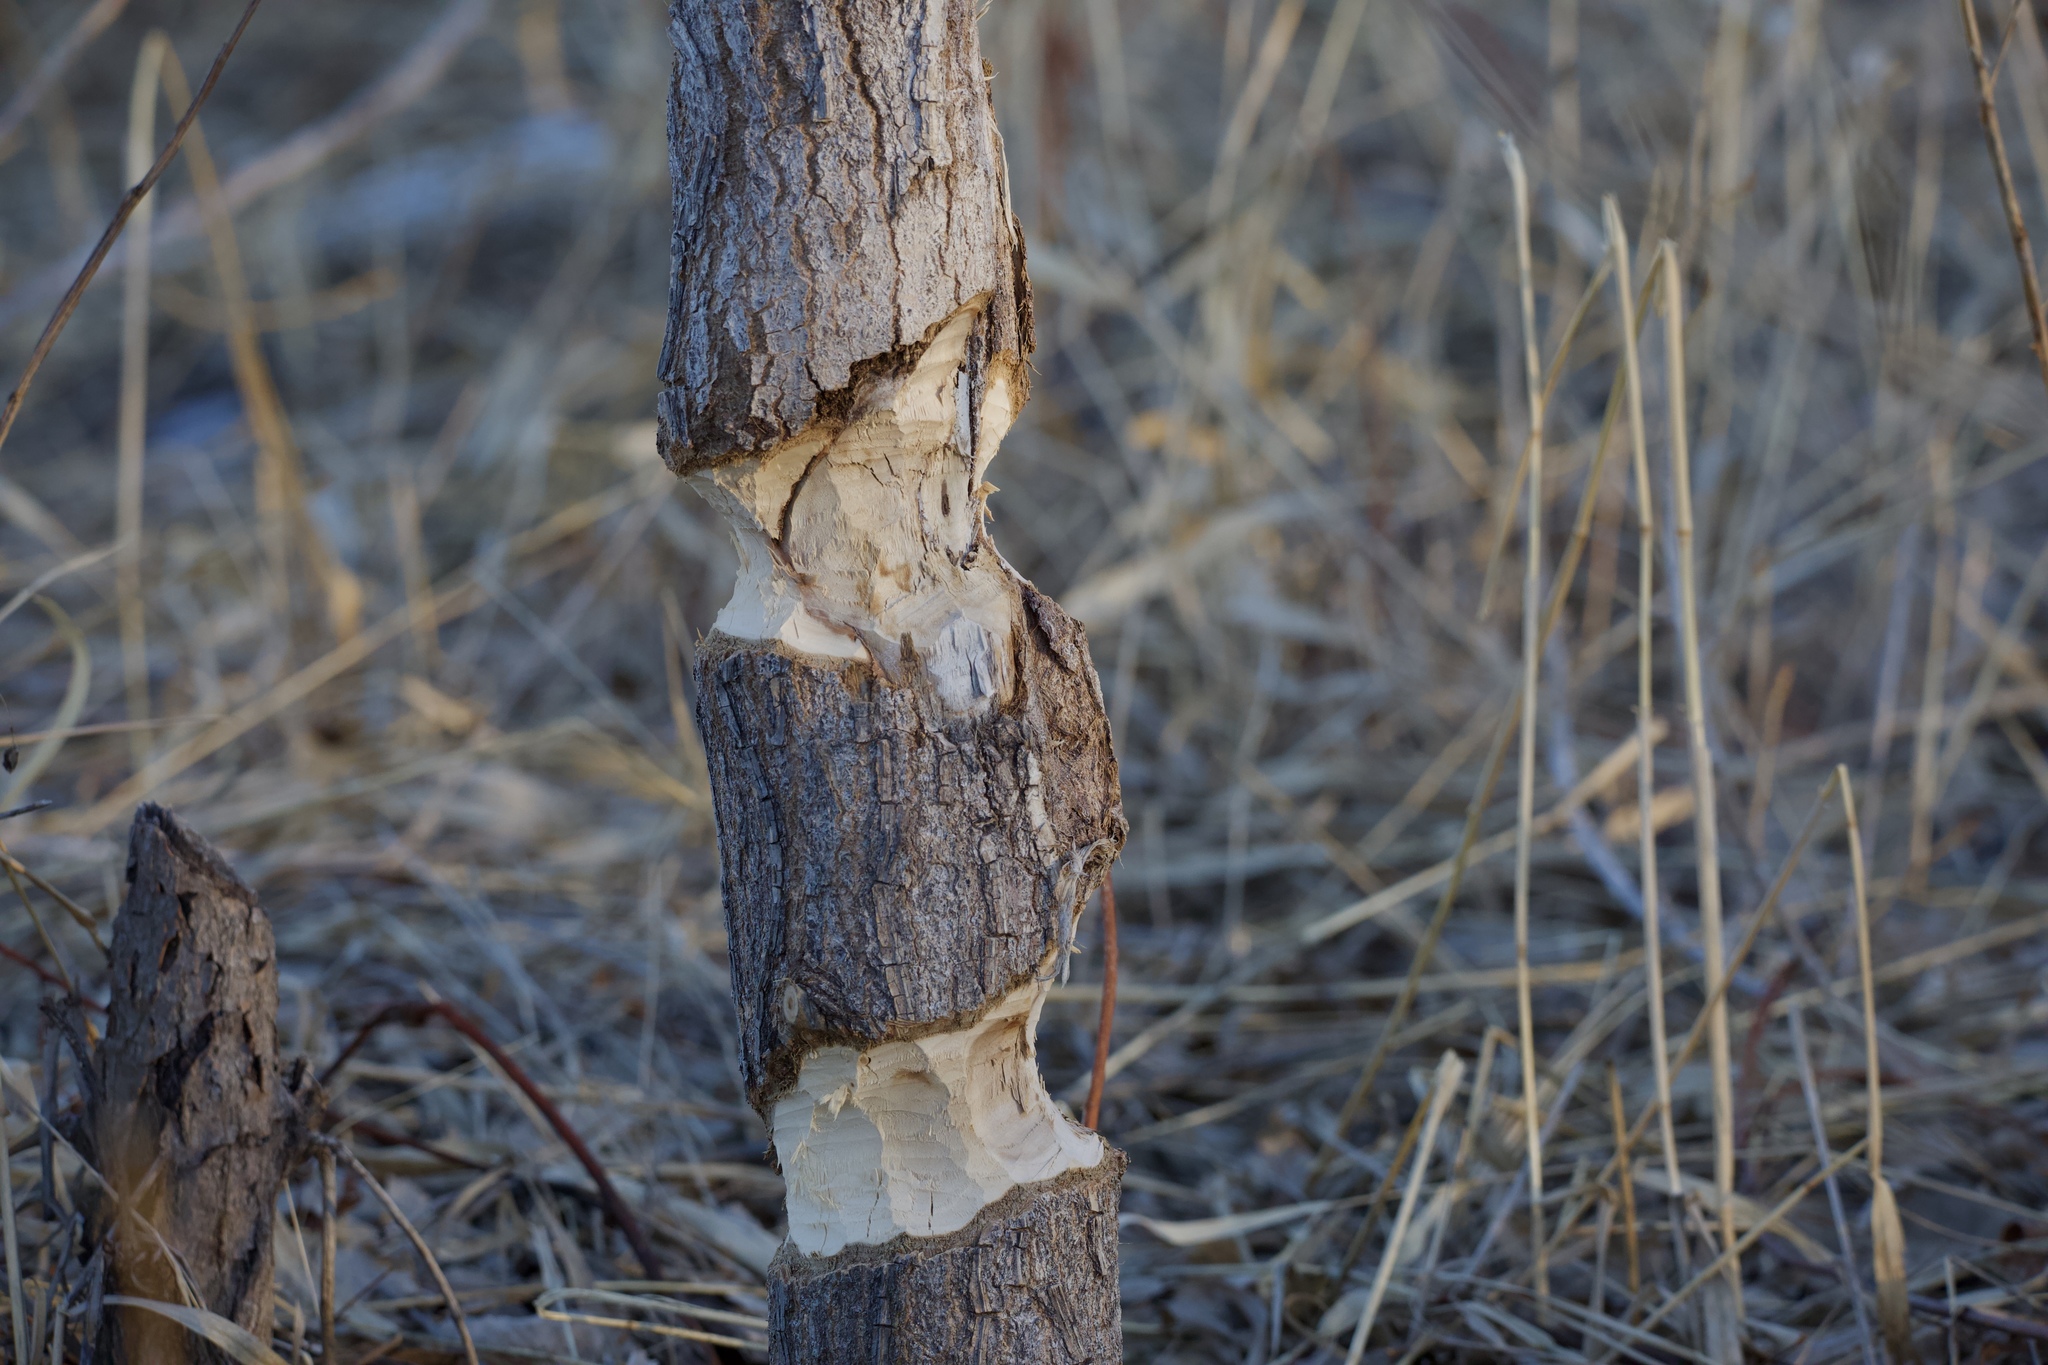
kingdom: Animalia
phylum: Chordata
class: Mammalia
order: Rodentia
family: Castoridae
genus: Castor
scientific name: Castor canadensis
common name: American beaver
